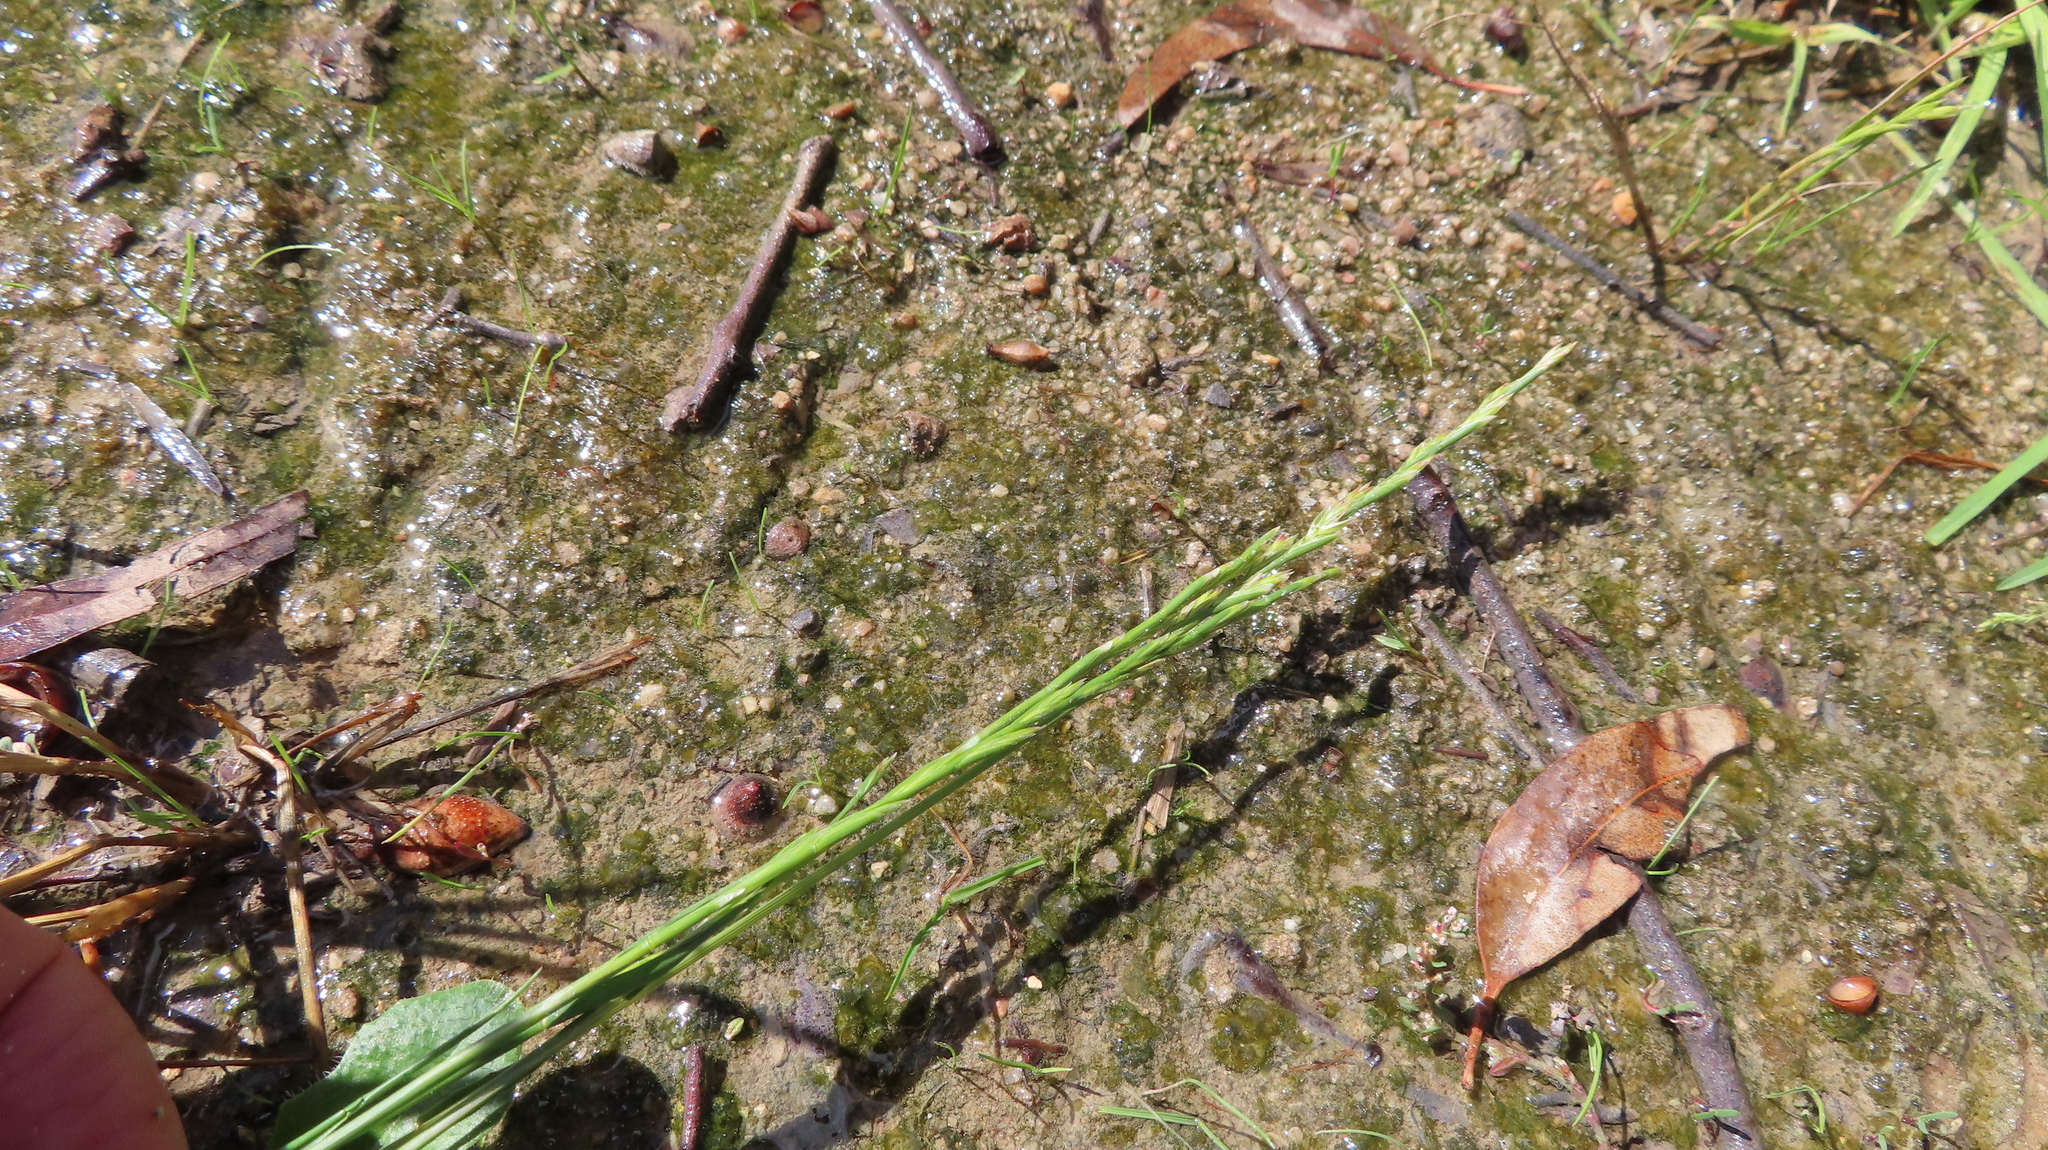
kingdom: Plantae
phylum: Tracheophyta
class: Liliopsida
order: Poales
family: Poaceae
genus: Lolium
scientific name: Lolium perenne
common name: Perennial ryegrass
